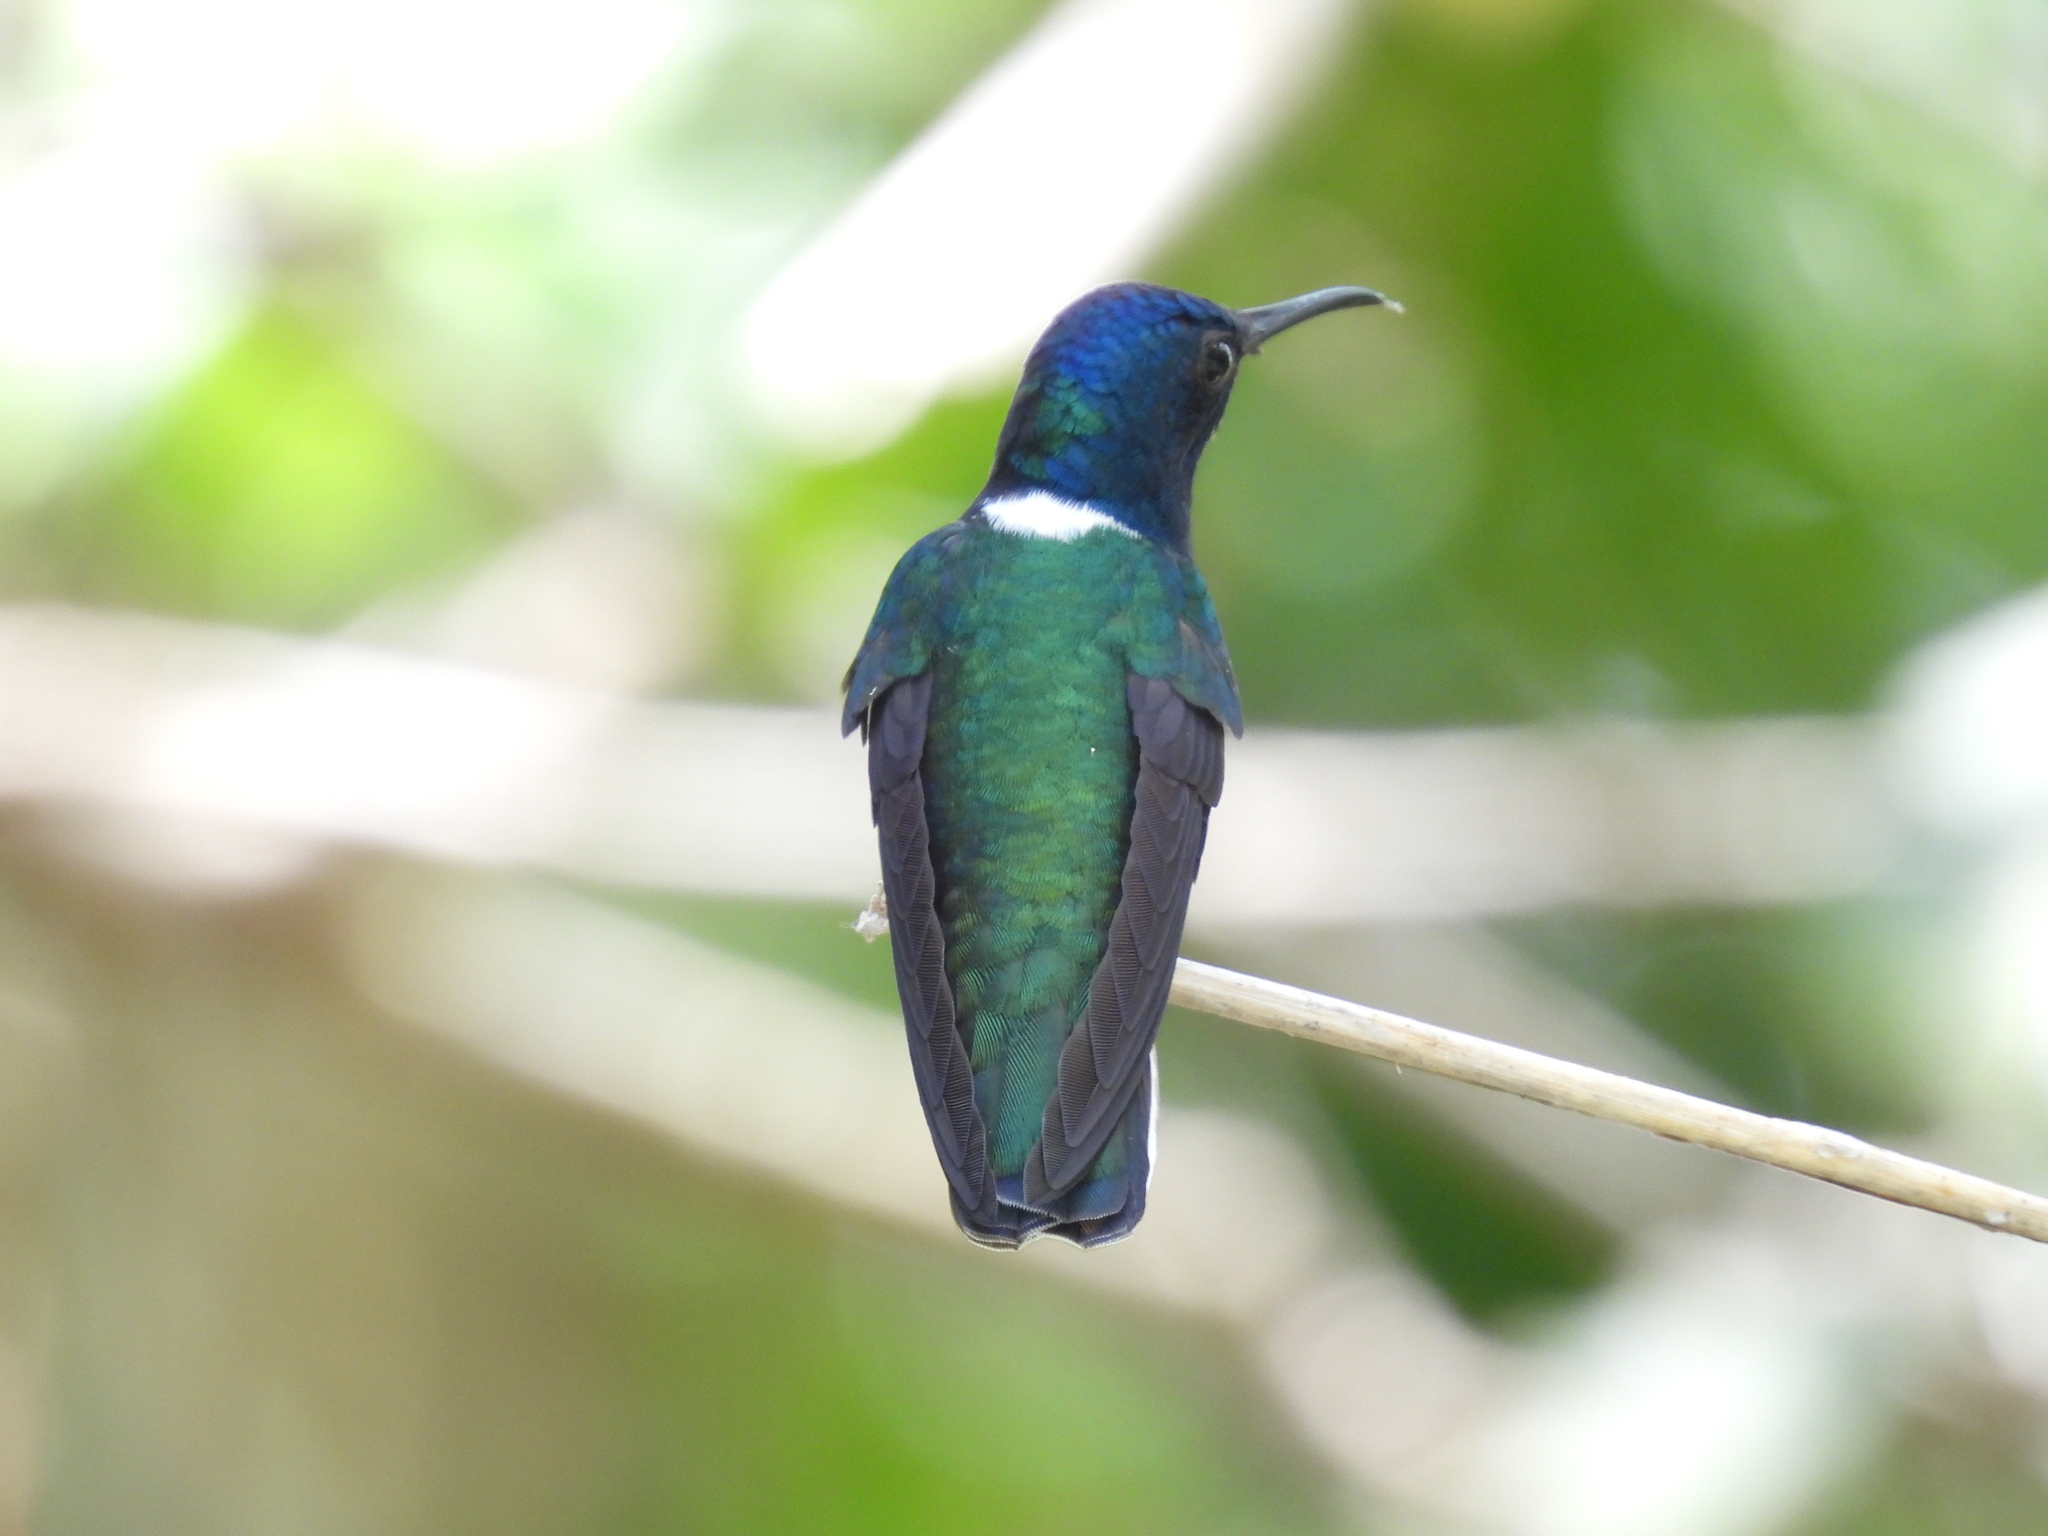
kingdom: Animalia
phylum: Chordata
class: Aves
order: Apodiformes
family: Trochilidae
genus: Florisuga
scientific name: Florisuga mellivora
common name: White-necked jacobin
